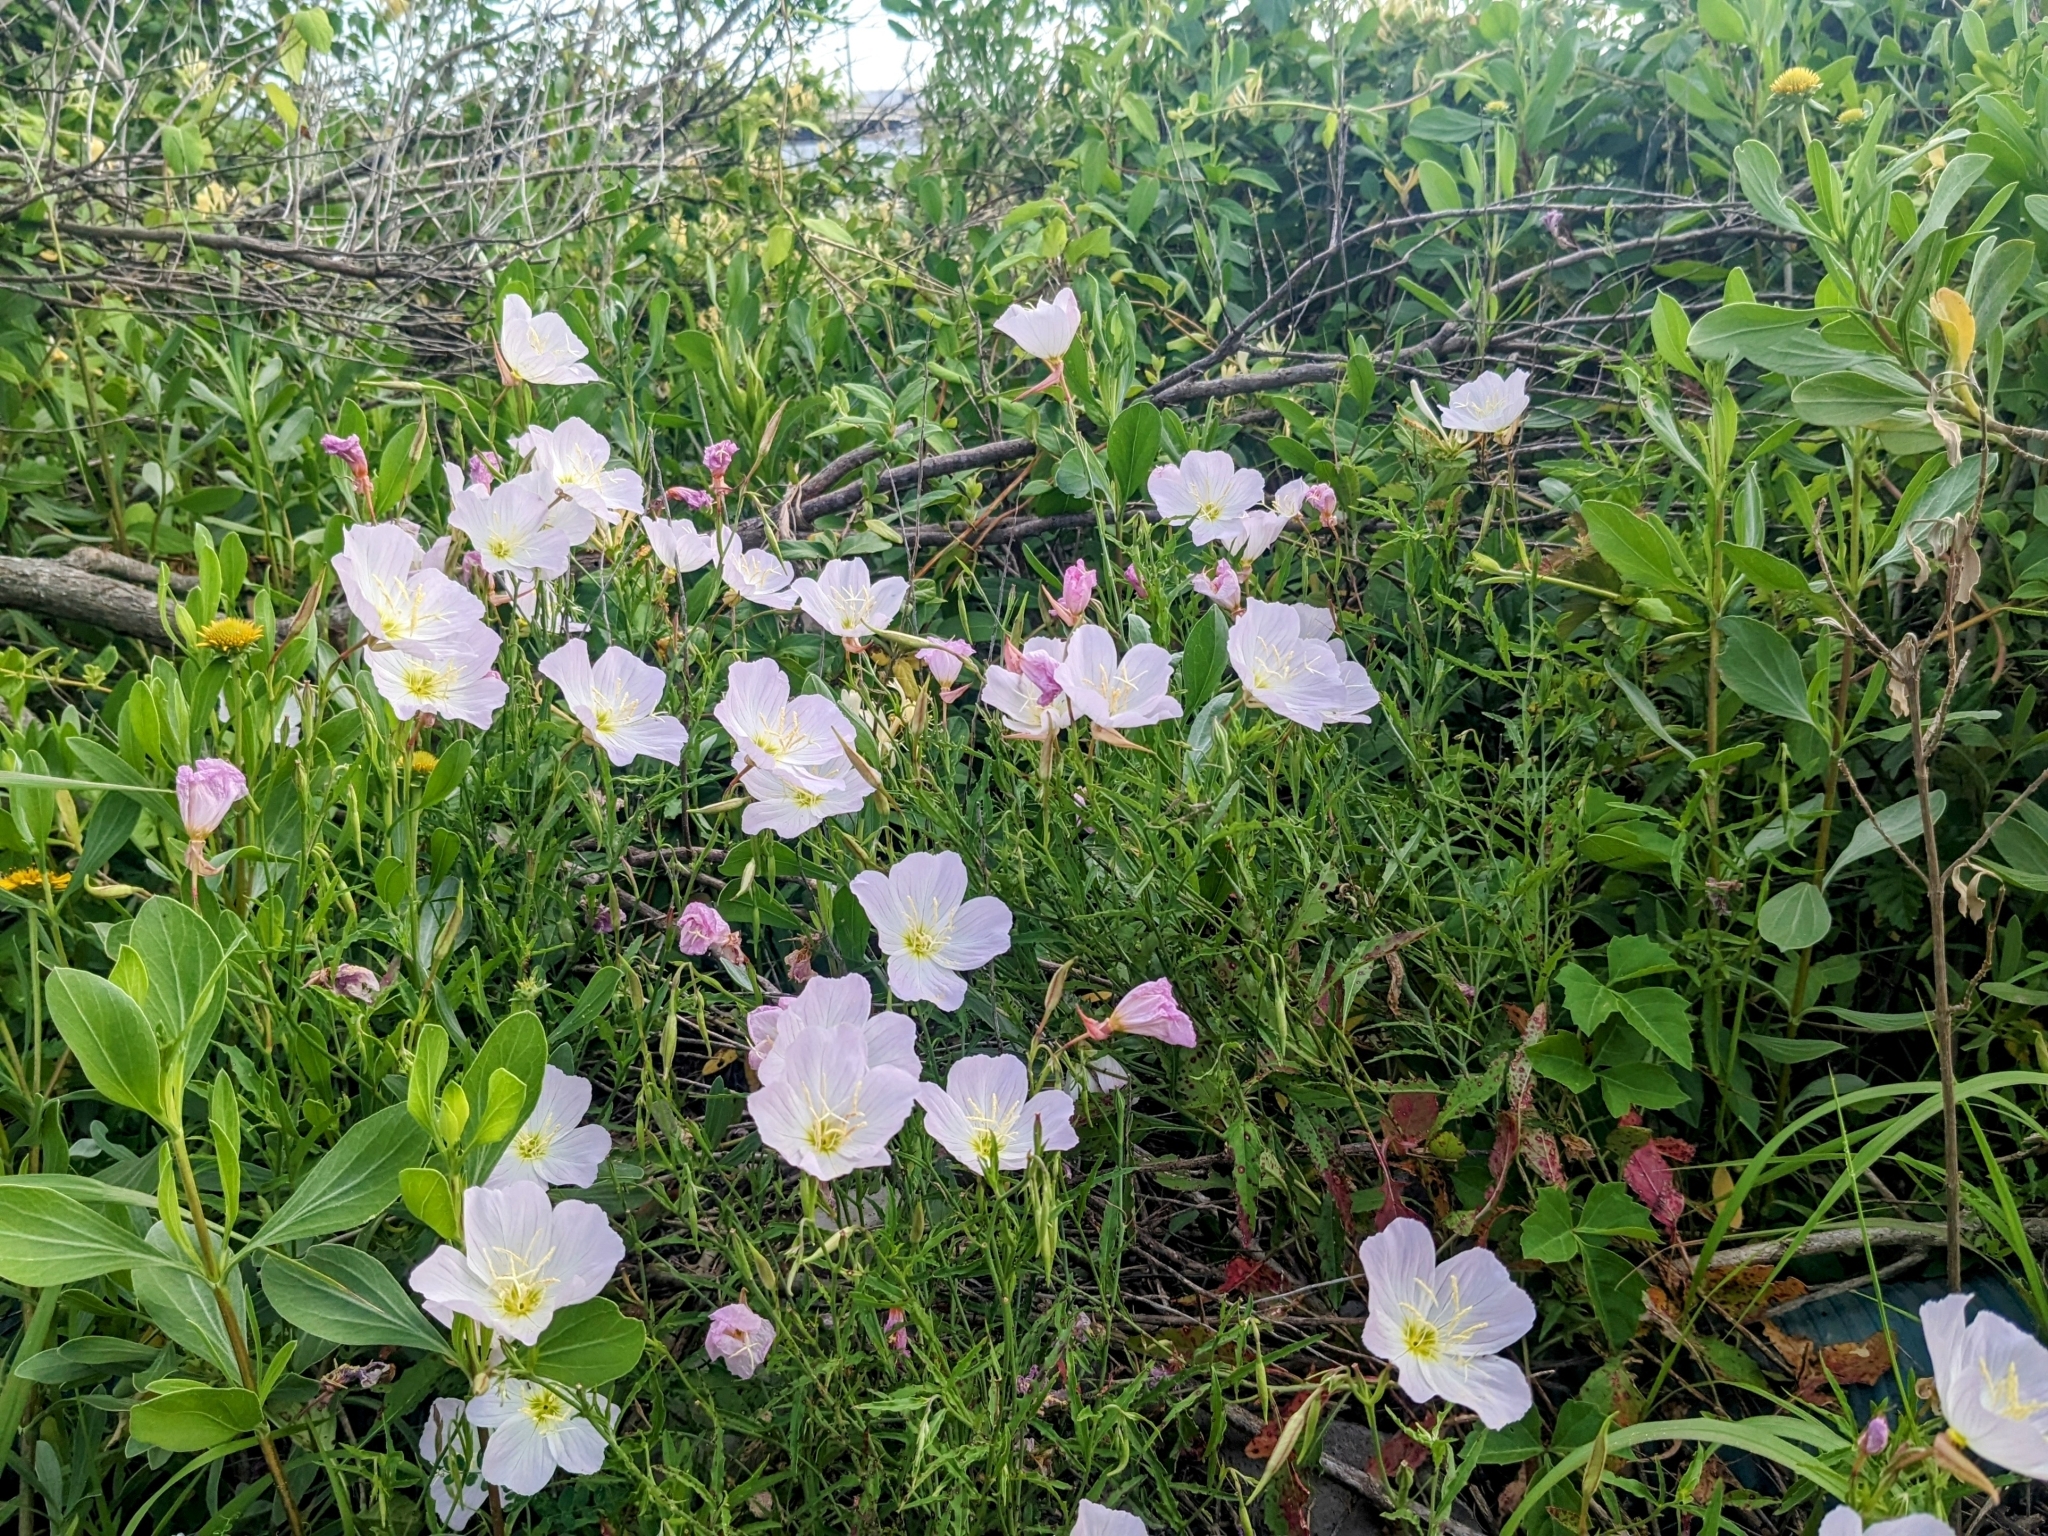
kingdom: Plantae
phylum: Tracheophyta
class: Magnoliopsida
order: Myrtales
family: Onagraceae
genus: Oenothera
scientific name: Oenothera speciosa
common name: White evening-primrose
